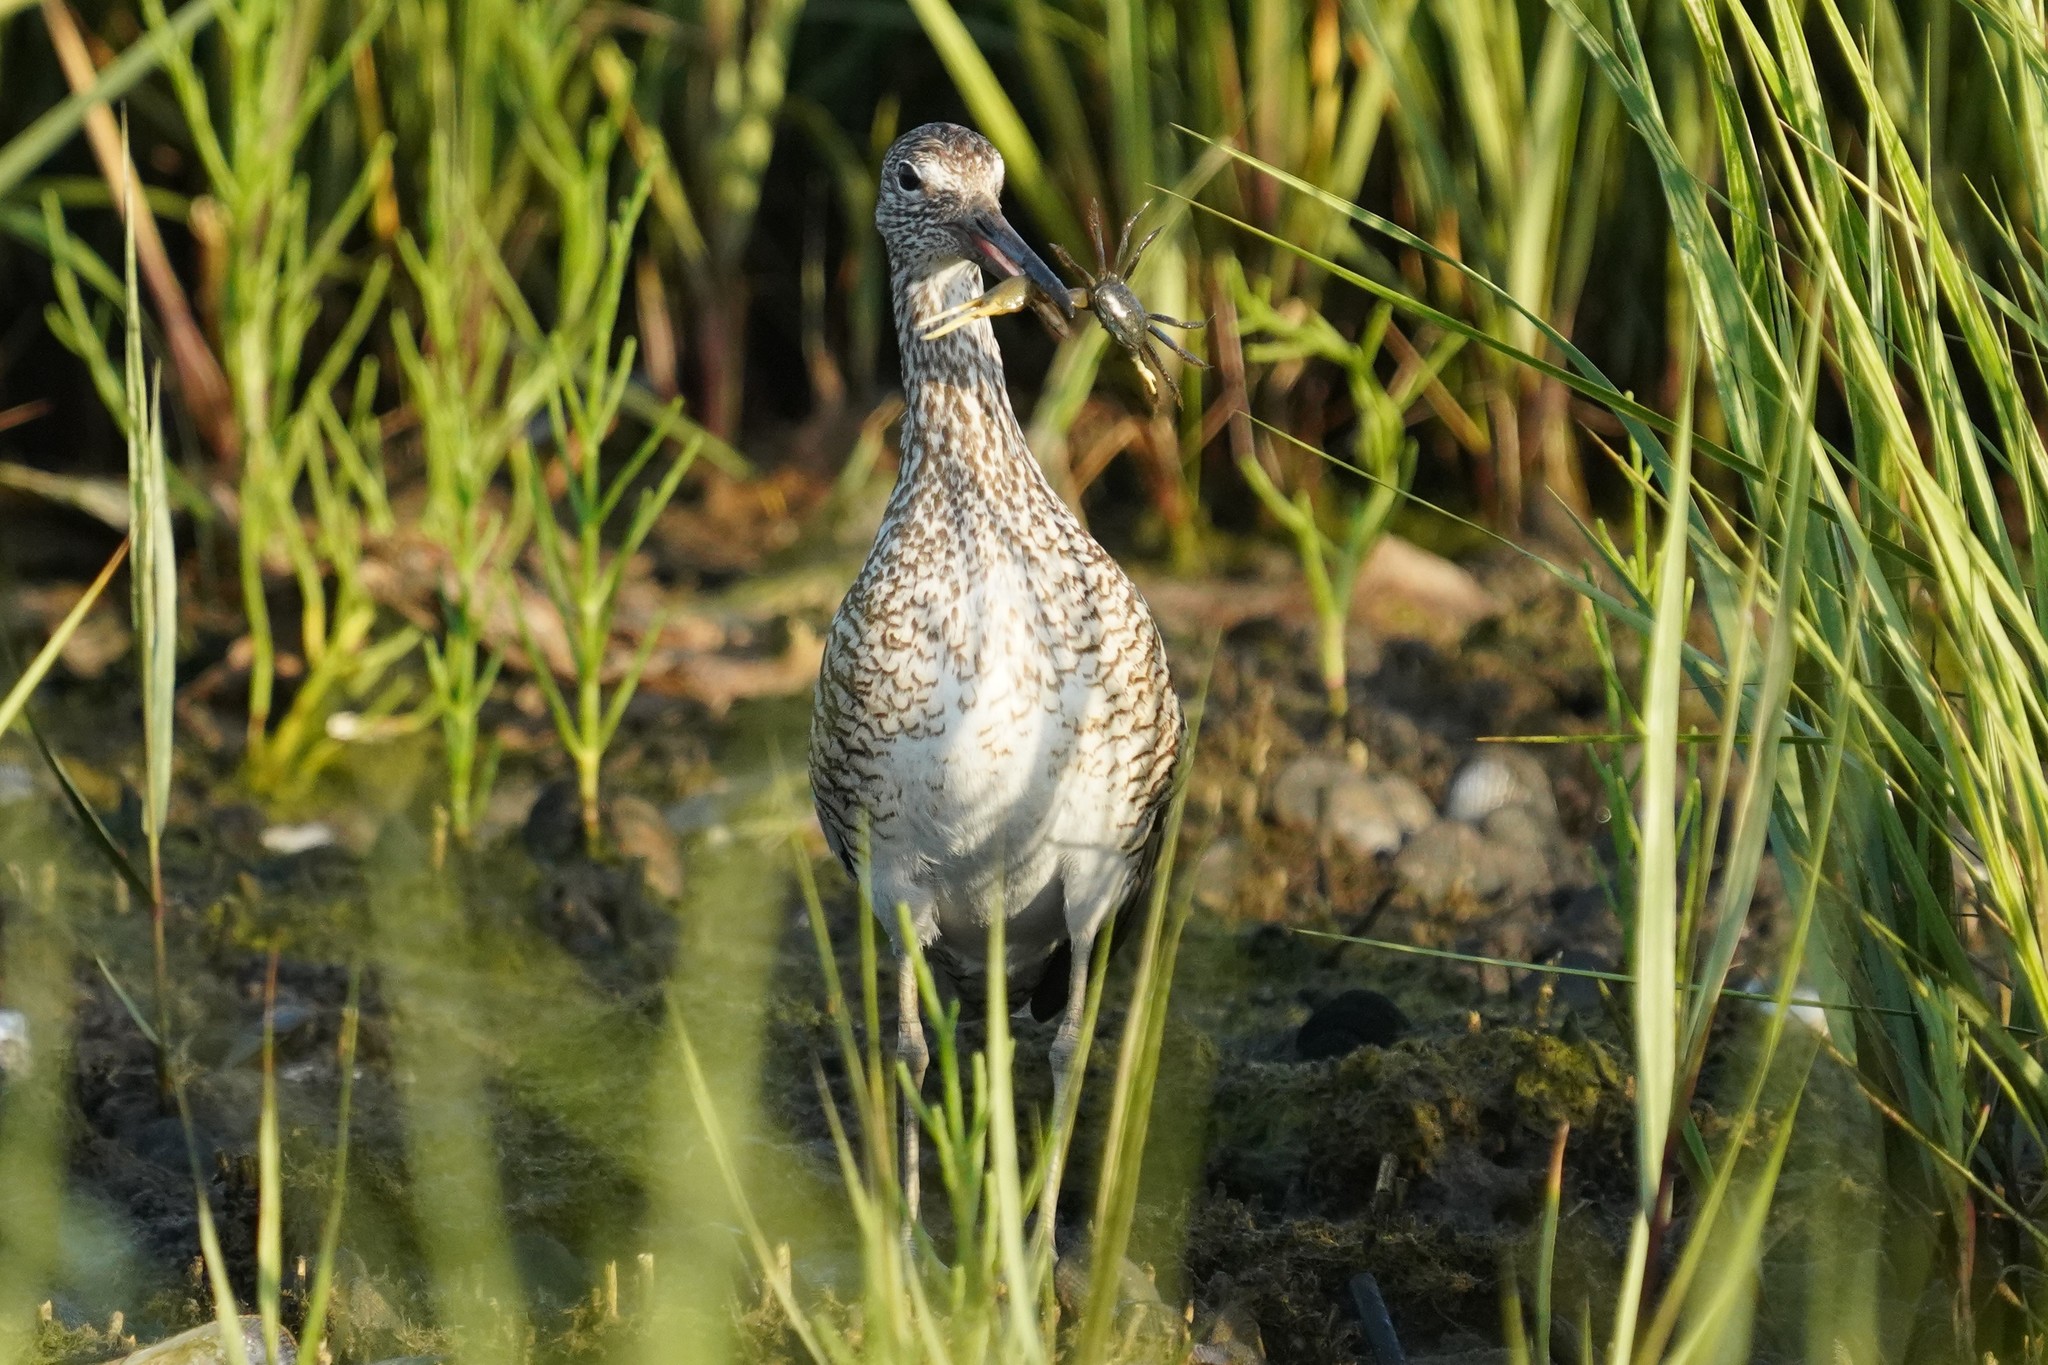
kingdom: Animalia
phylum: Chordata
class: Aves
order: Charadriiformes
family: Scolopacidae
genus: Tringa
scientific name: Tringa semipalmata
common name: Willet
